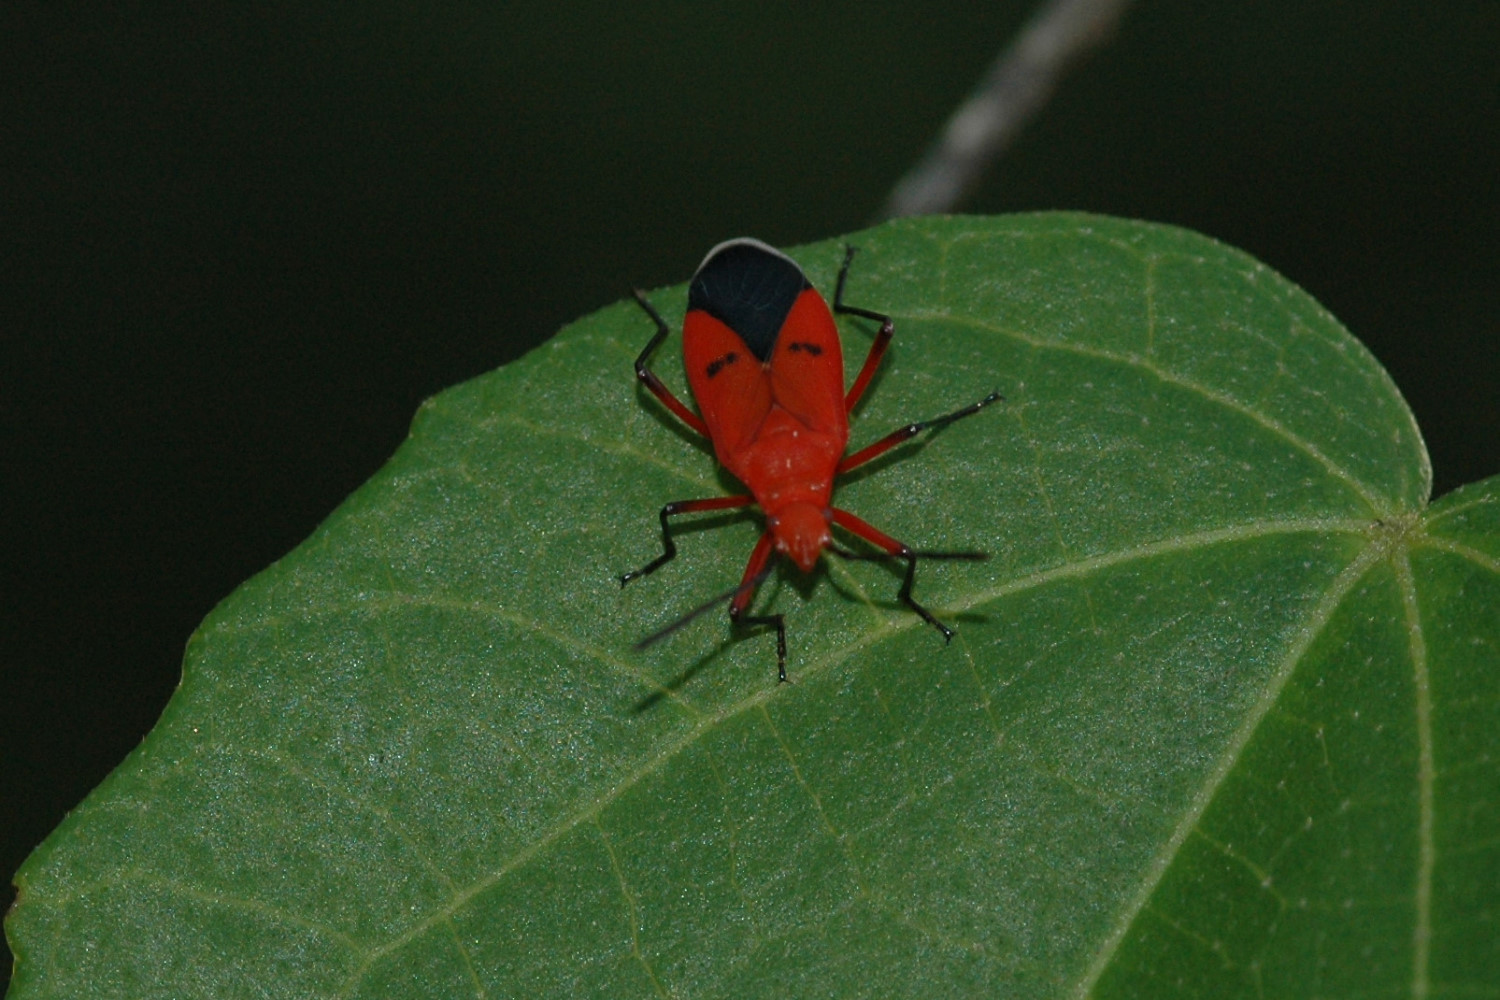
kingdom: Animalia
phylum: Arthropoda
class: Insecta
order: Hemiptera
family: Pyrrhocoridae
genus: Dysdercus
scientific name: Dysdercus
